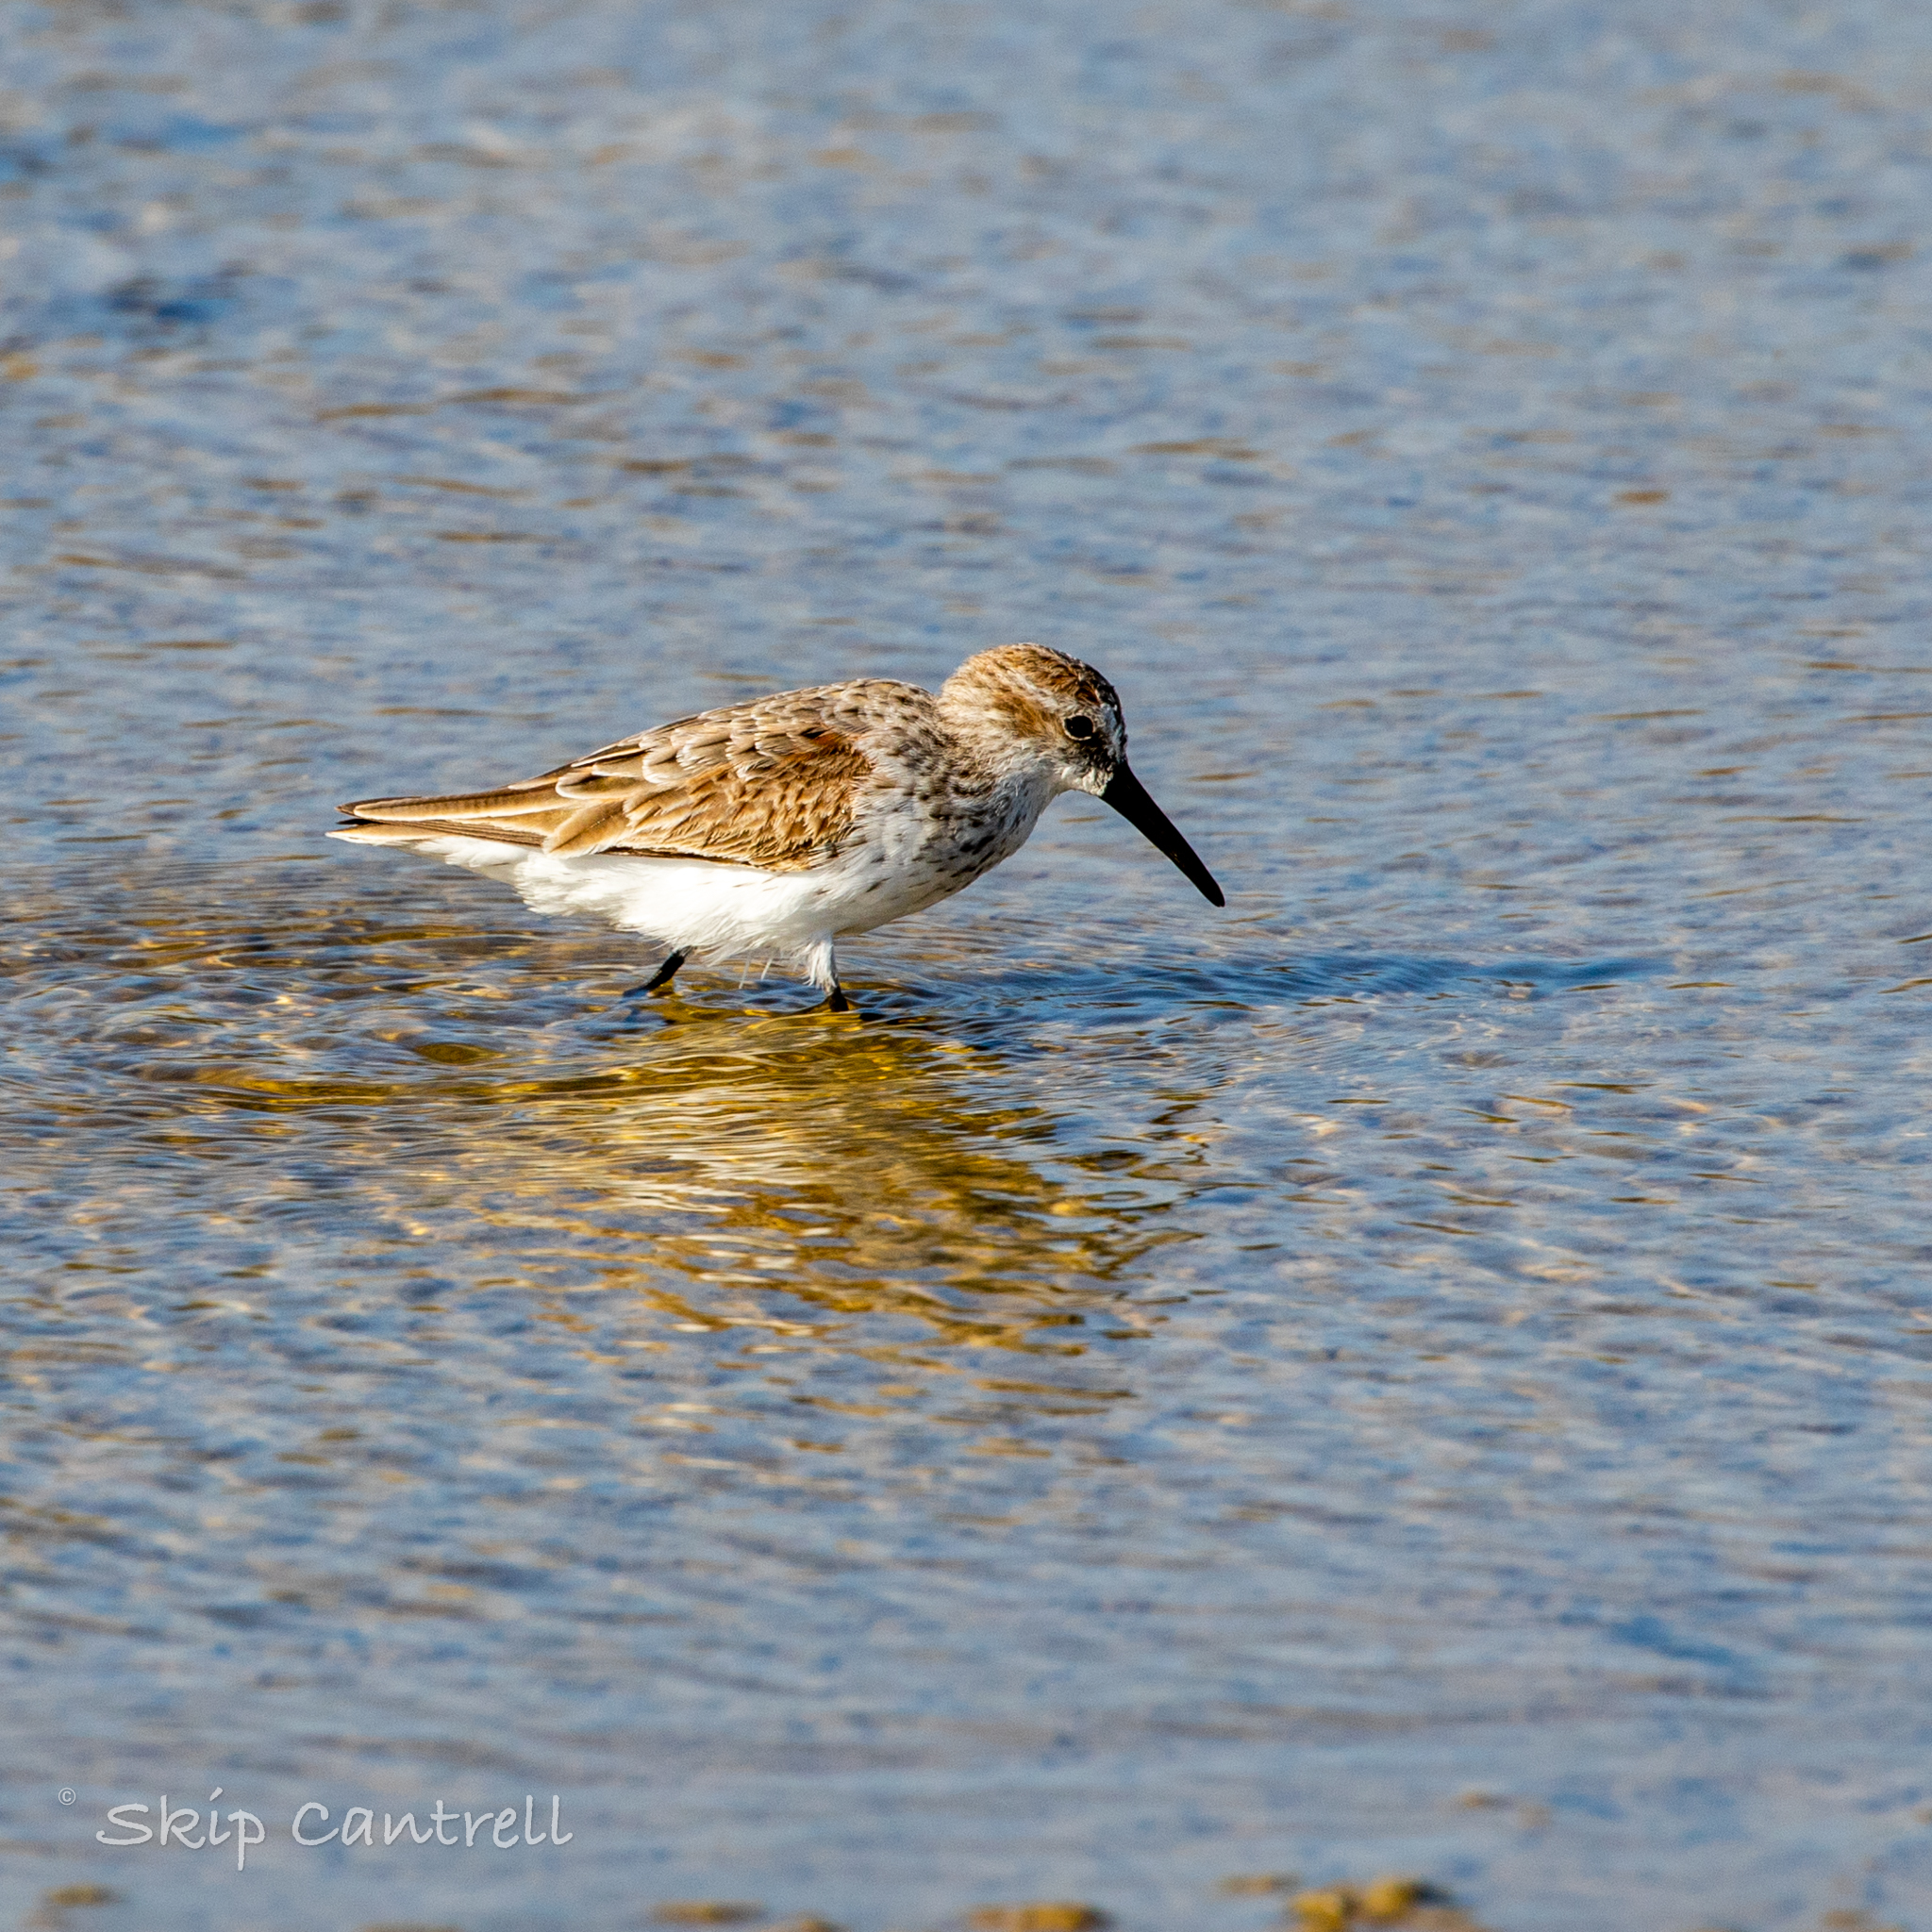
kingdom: Animalia
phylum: Chordata
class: Aves
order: Charadriiformes
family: Scolopacidae
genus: Calidris
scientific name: Calidris mauri
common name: Western sandpiper
